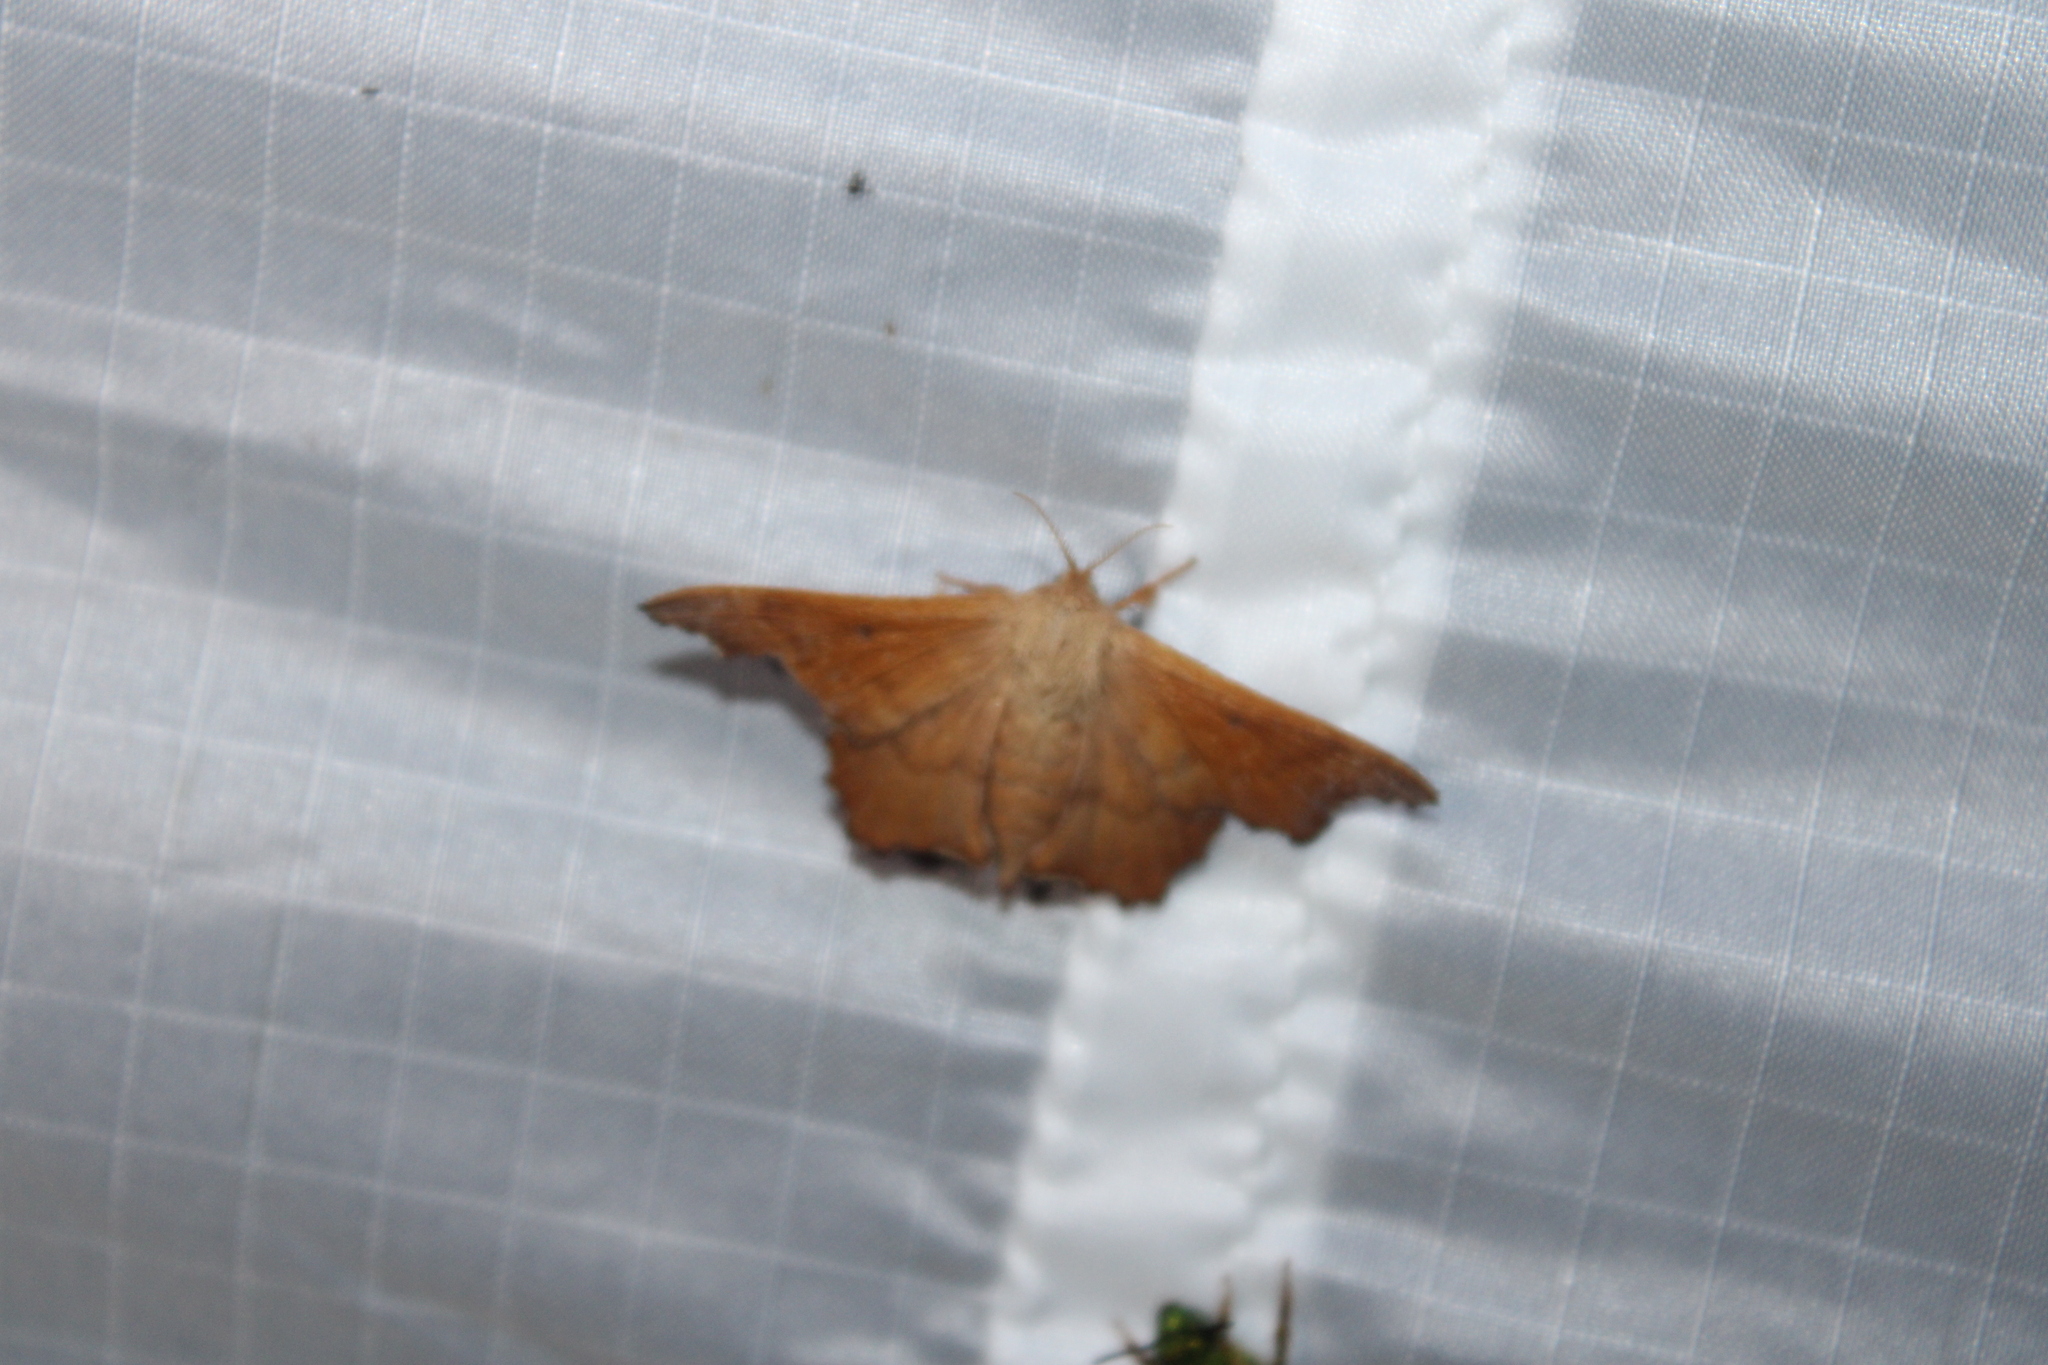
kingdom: Animalia
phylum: Arthropoda
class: Insecta
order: Lepidoptera
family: Mimallonidae
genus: Lacosoma
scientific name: Lacosoma chiridota
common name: Scalloped sack-bearer moth
